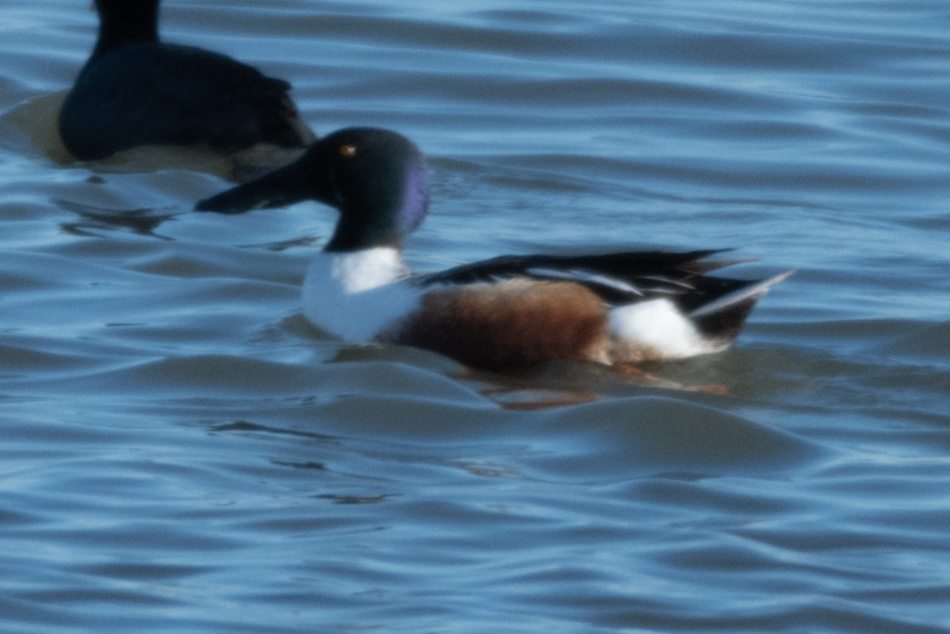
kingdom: Animalia
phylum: Chordata
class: Aves
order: Anseriformes
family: Anatidae
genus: Spatula
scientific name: Spatula clypeata
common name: Northern shoveler
